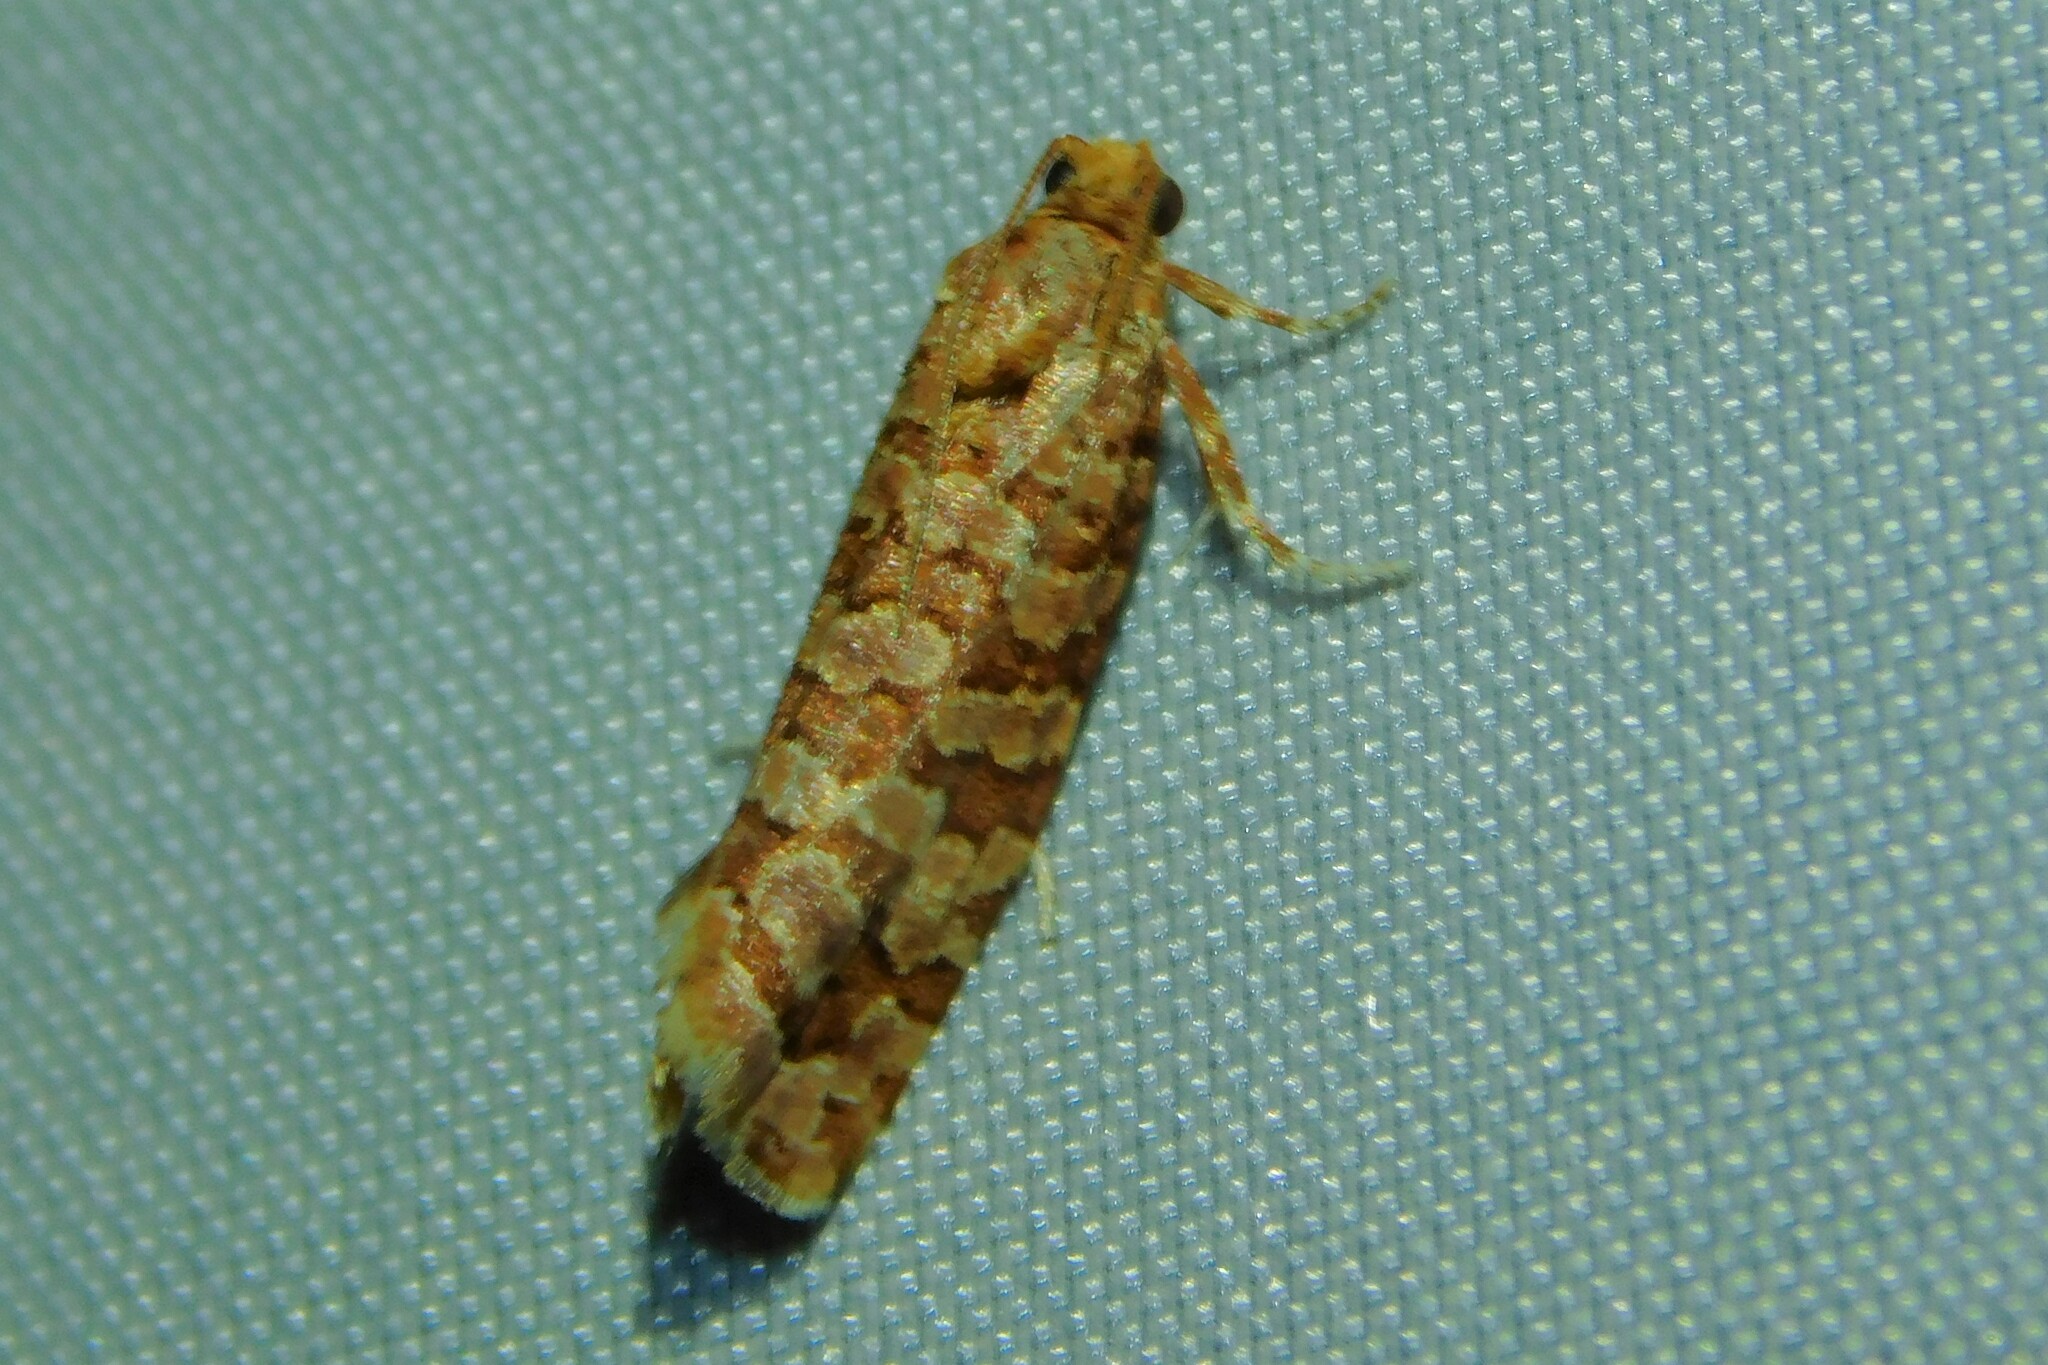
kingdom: Animalia
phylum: Arthropoda
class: Insecta
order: Lepidoptera
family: Tortricidae
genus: Lozotaeniodes
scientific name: Lozotaeniodes formosana
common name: Orange pine twist
